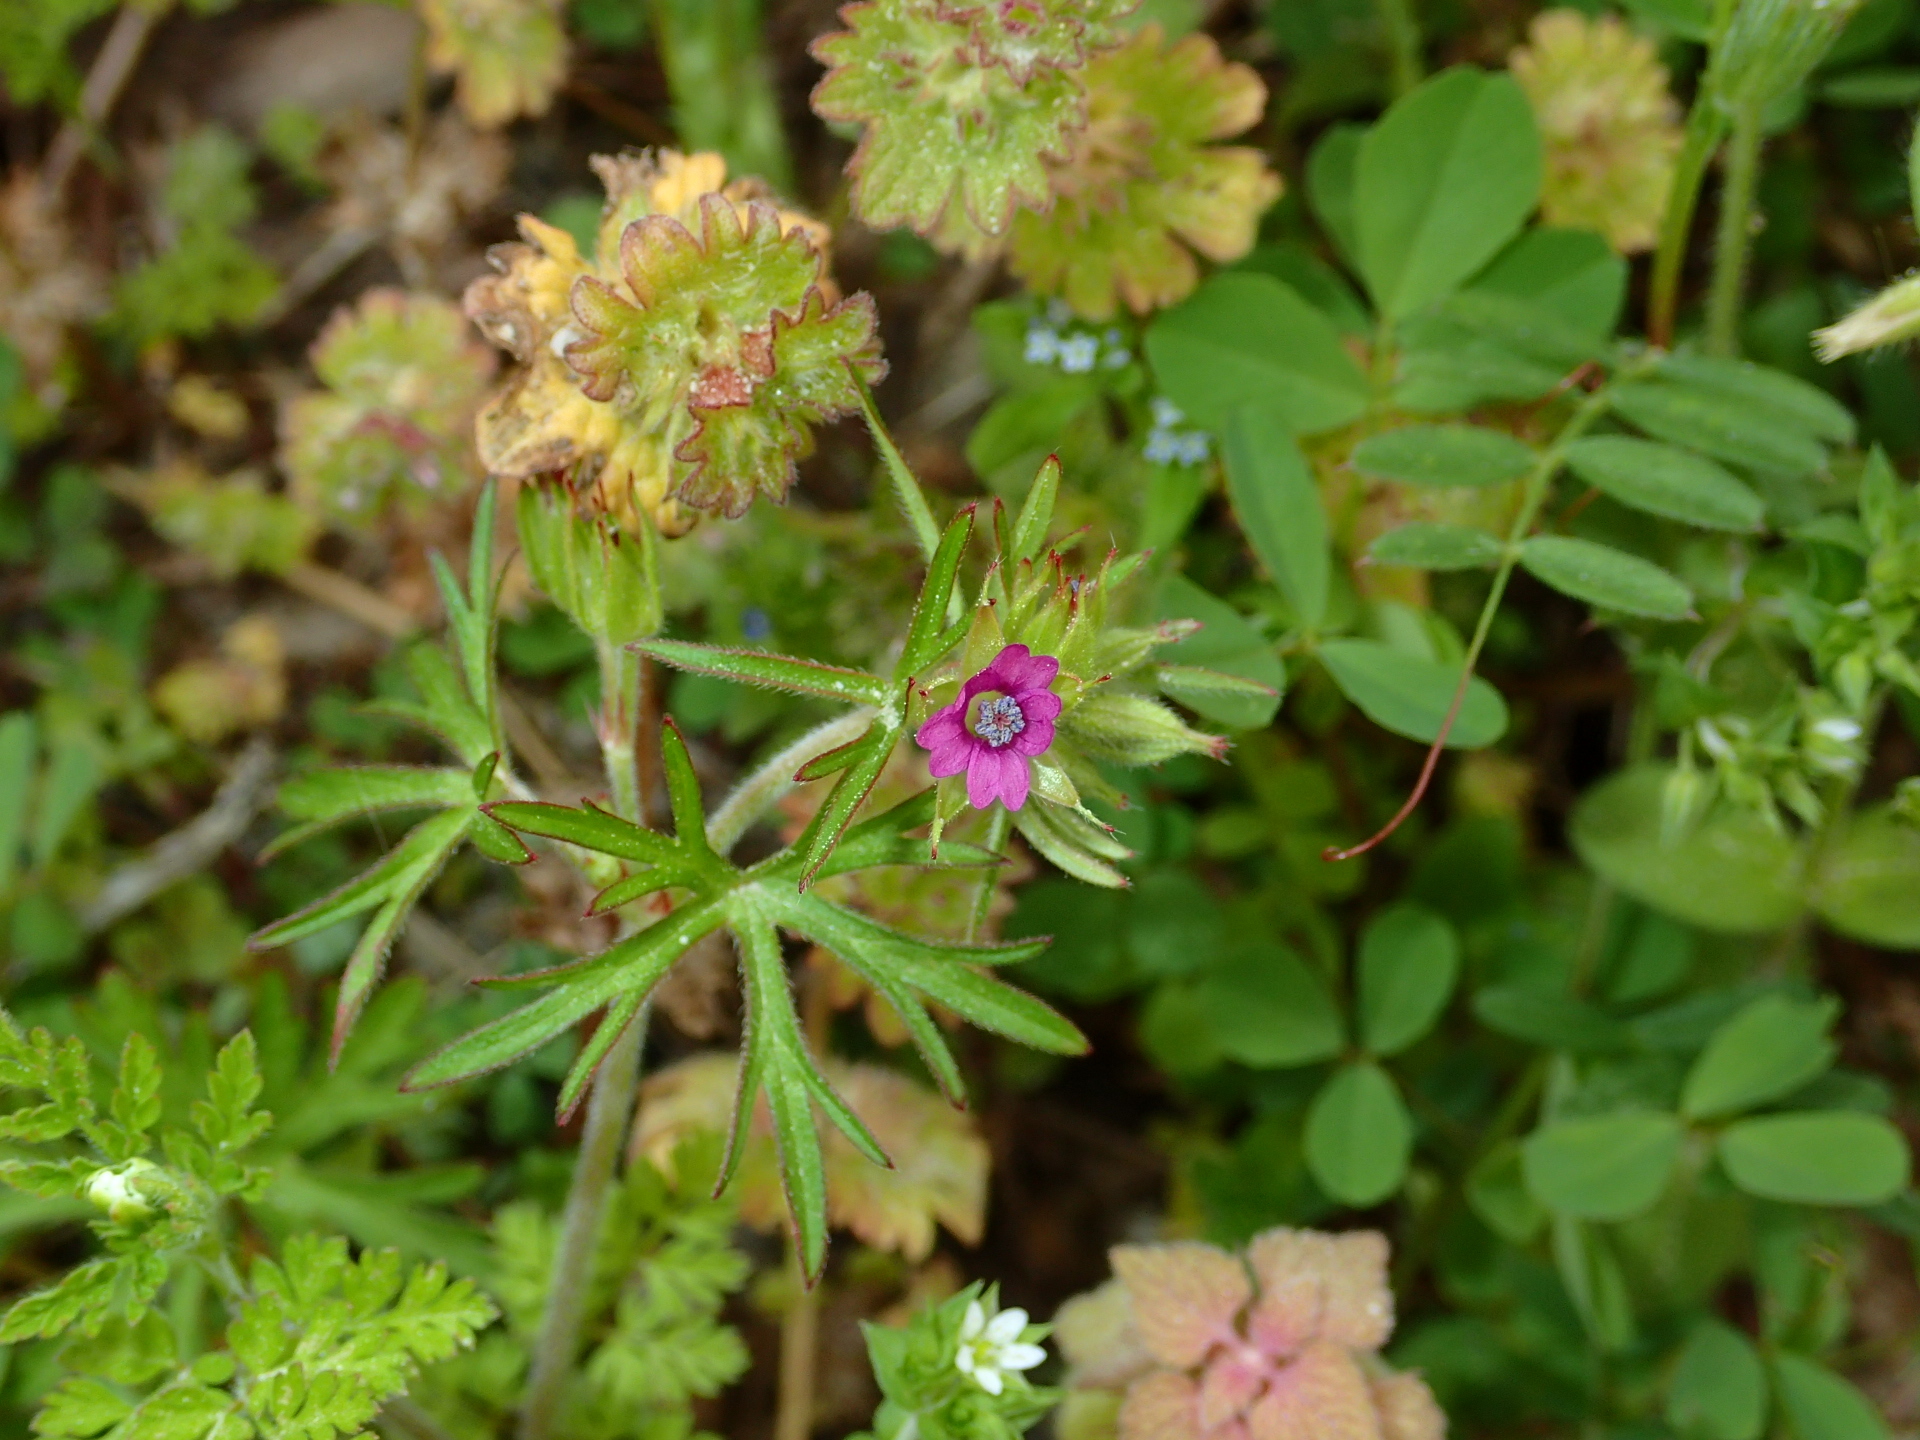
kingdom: Plantae
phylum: Tracheophyta
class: Magnoliopsida
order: Geraniales
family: Geraniaceae
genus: Geranium
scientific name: Geranium dissectum
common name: Cut-leaved crane's-bill
